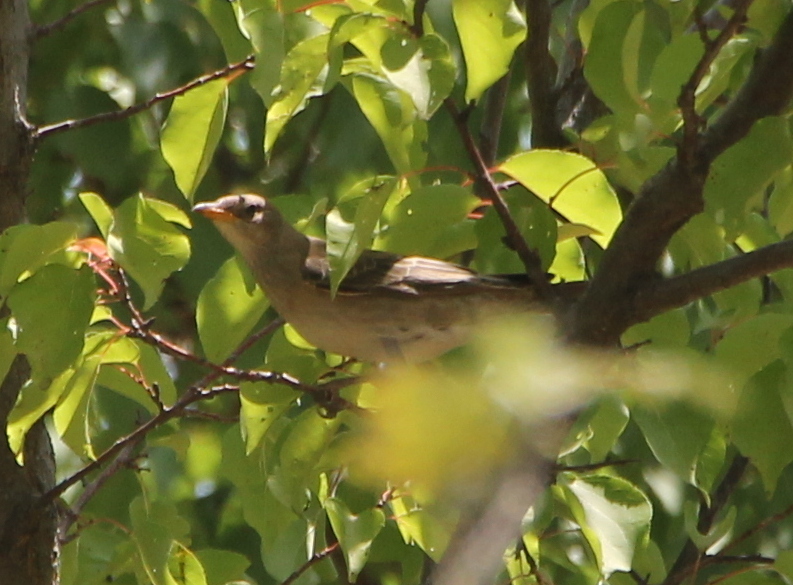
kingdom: Animalia
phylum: Chordata
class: Aves
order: Passeriformes
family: Sturnidae
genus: Pastor
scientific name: Pastor roseus
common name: Rosy starling
